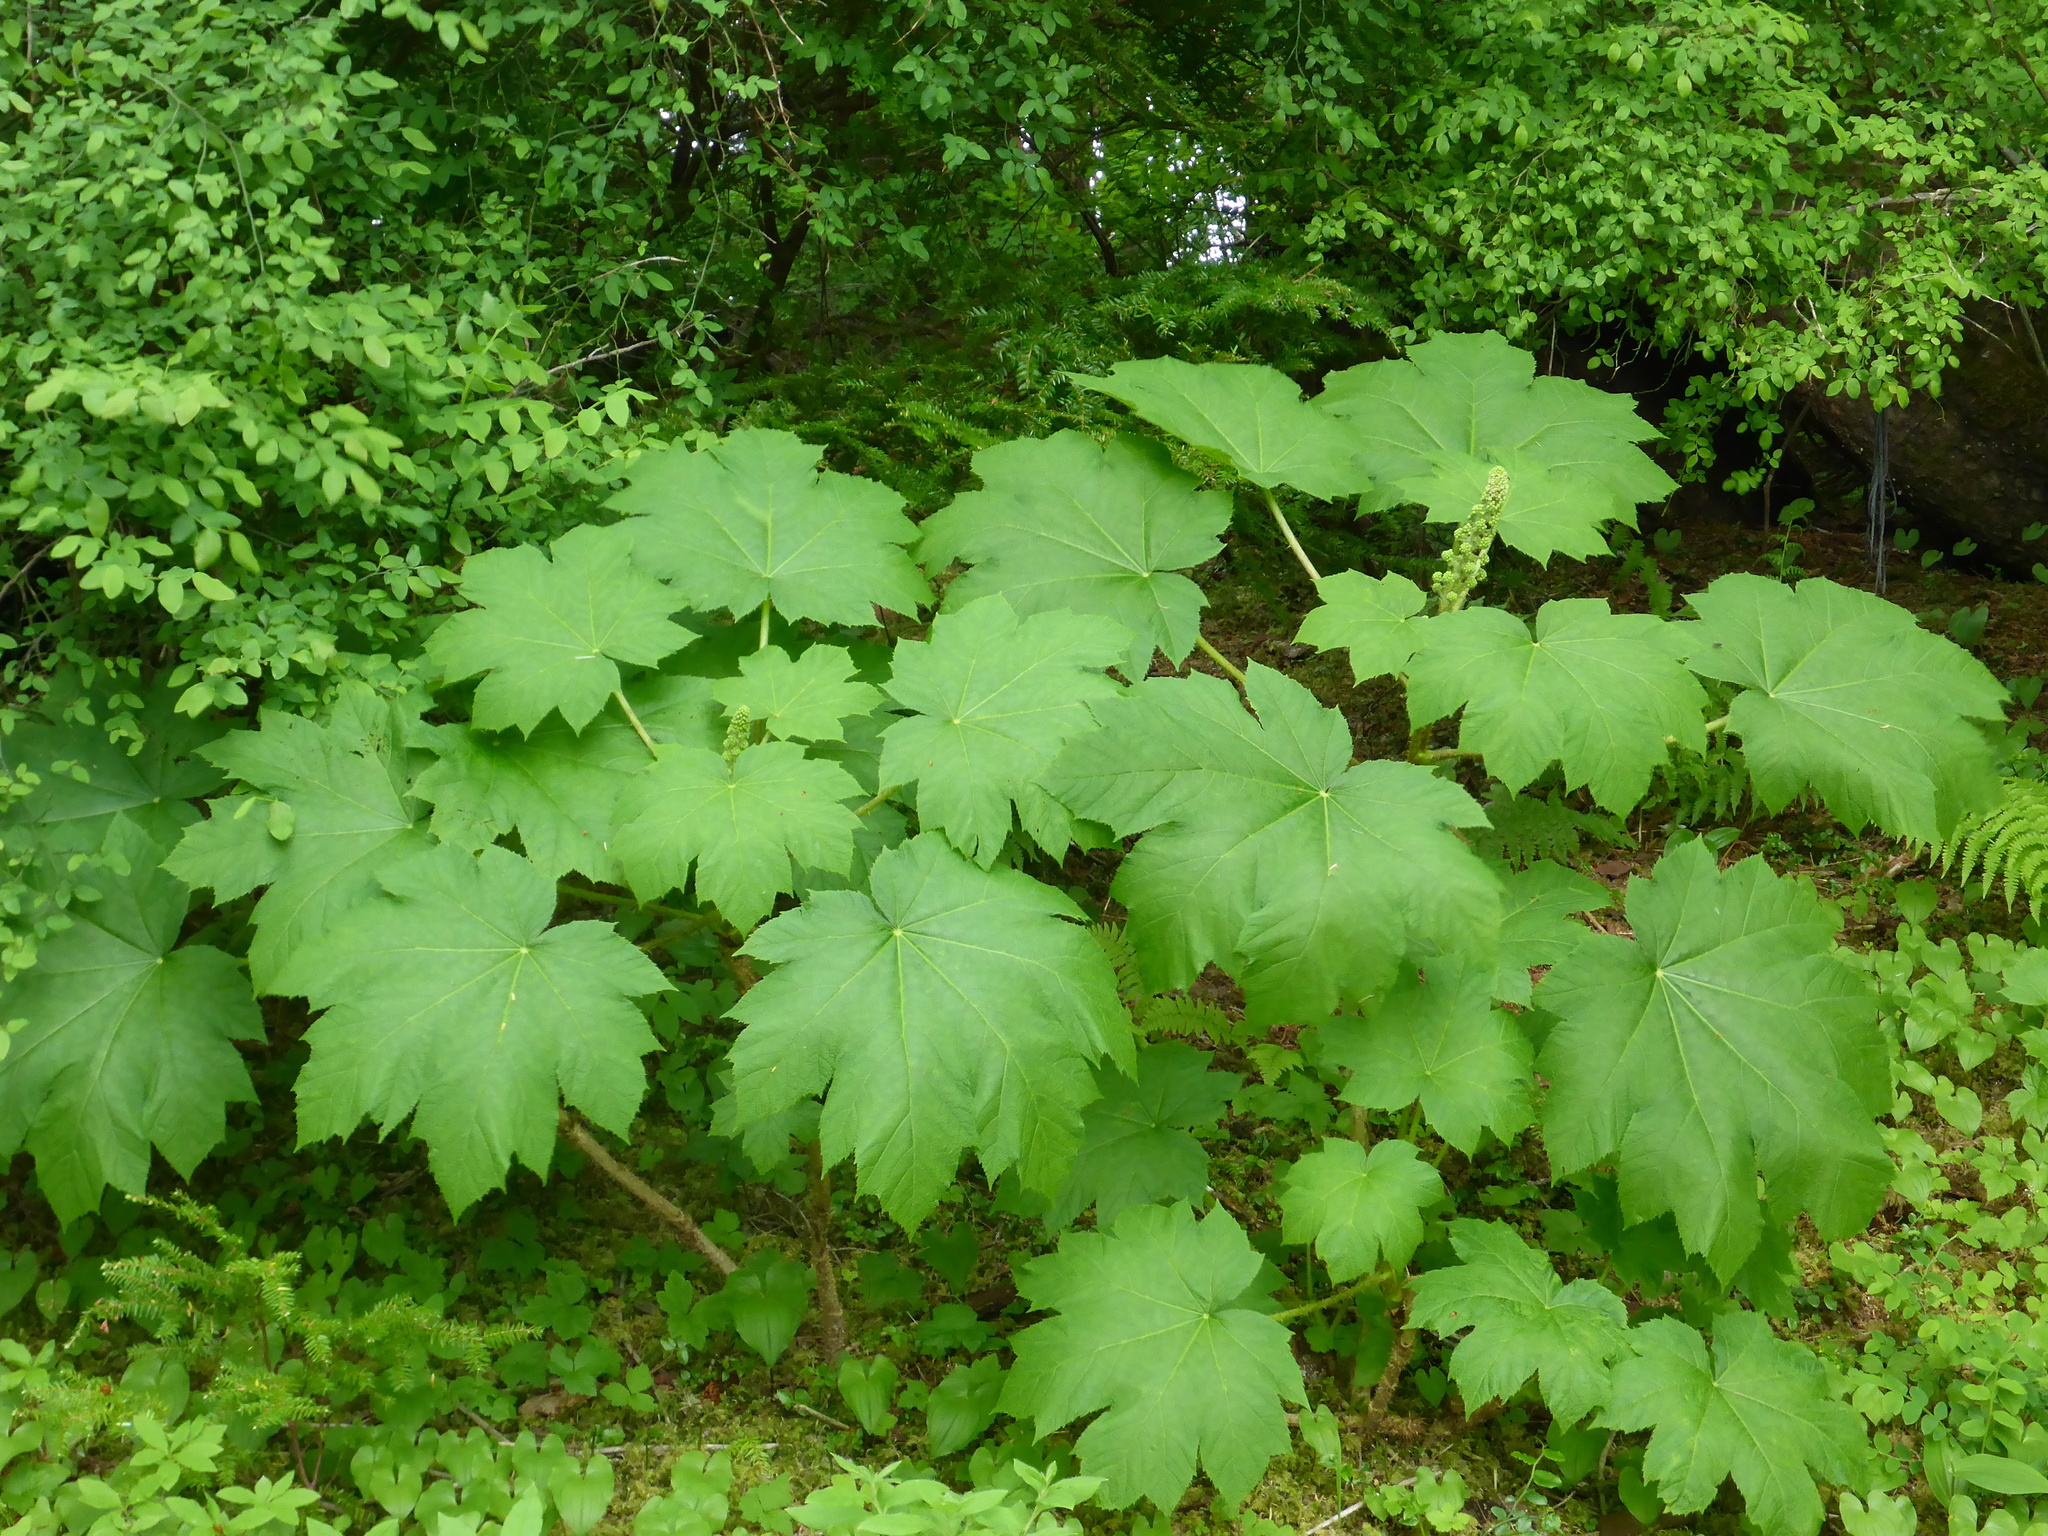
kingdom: Plantae
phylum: Tracheophyta
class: Magnoliopsida
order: Apiales
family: Araliaceae
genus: Oplopanax
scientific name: Oplopanax horridus
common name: Devil's walking-stick
